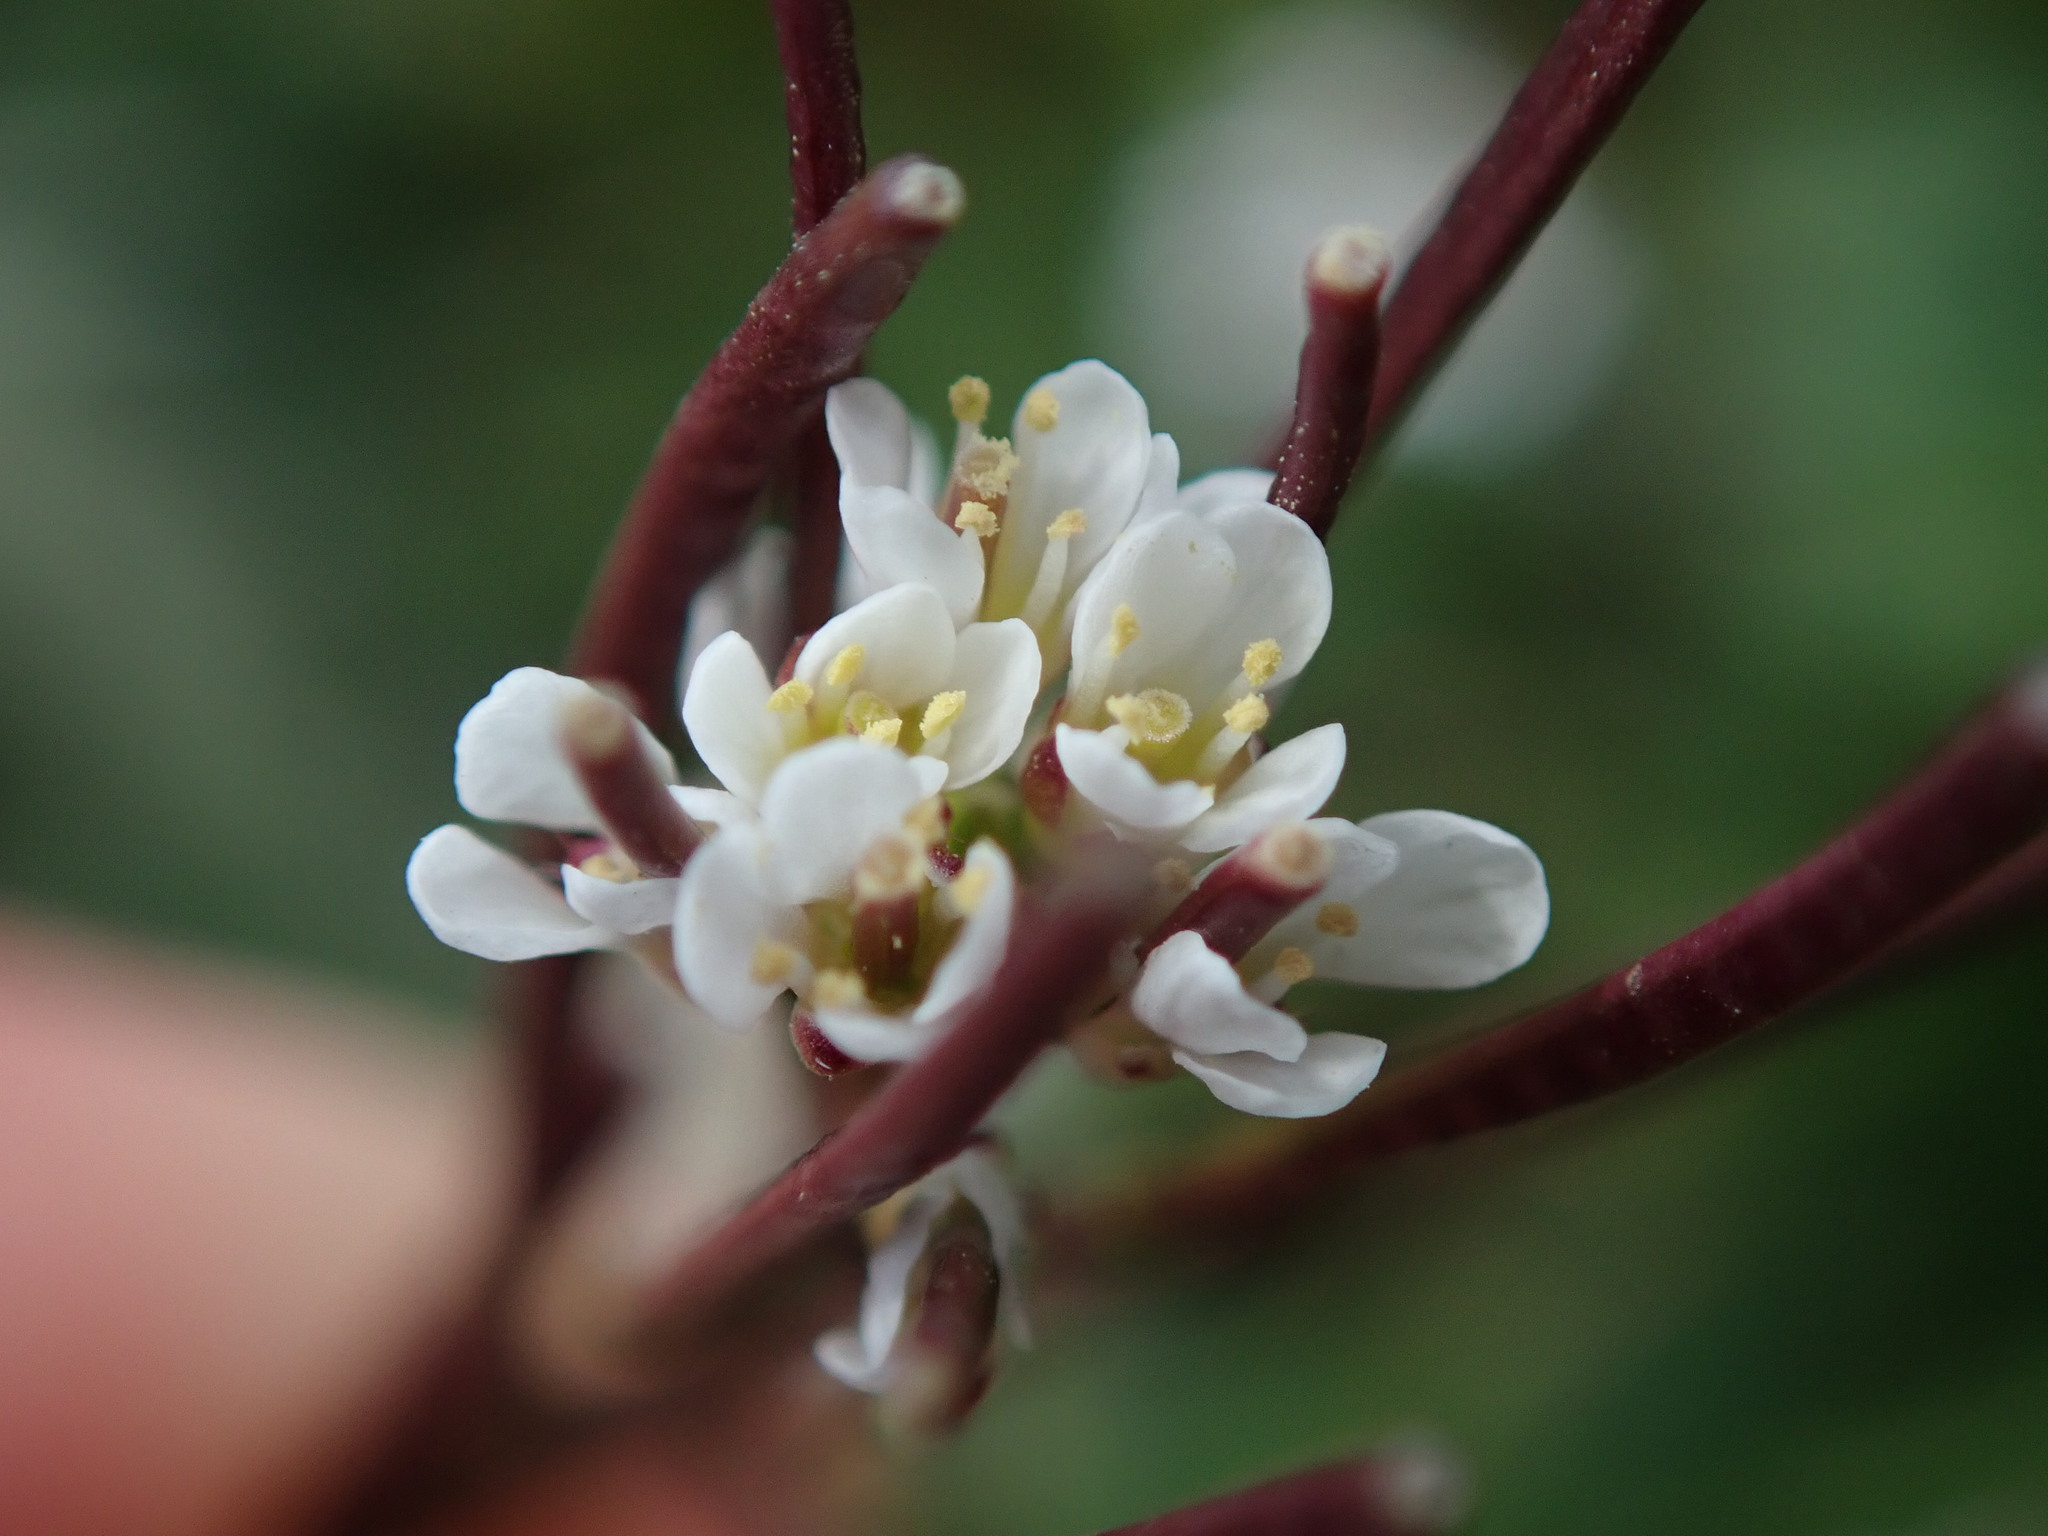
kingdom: Plantae
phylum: Tracheophyta
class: Magnoliopsida
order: Brassicales
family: Brassicaceae
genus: Cardamine
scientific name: Cardamine hirsuta
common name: Hairy bittercress
